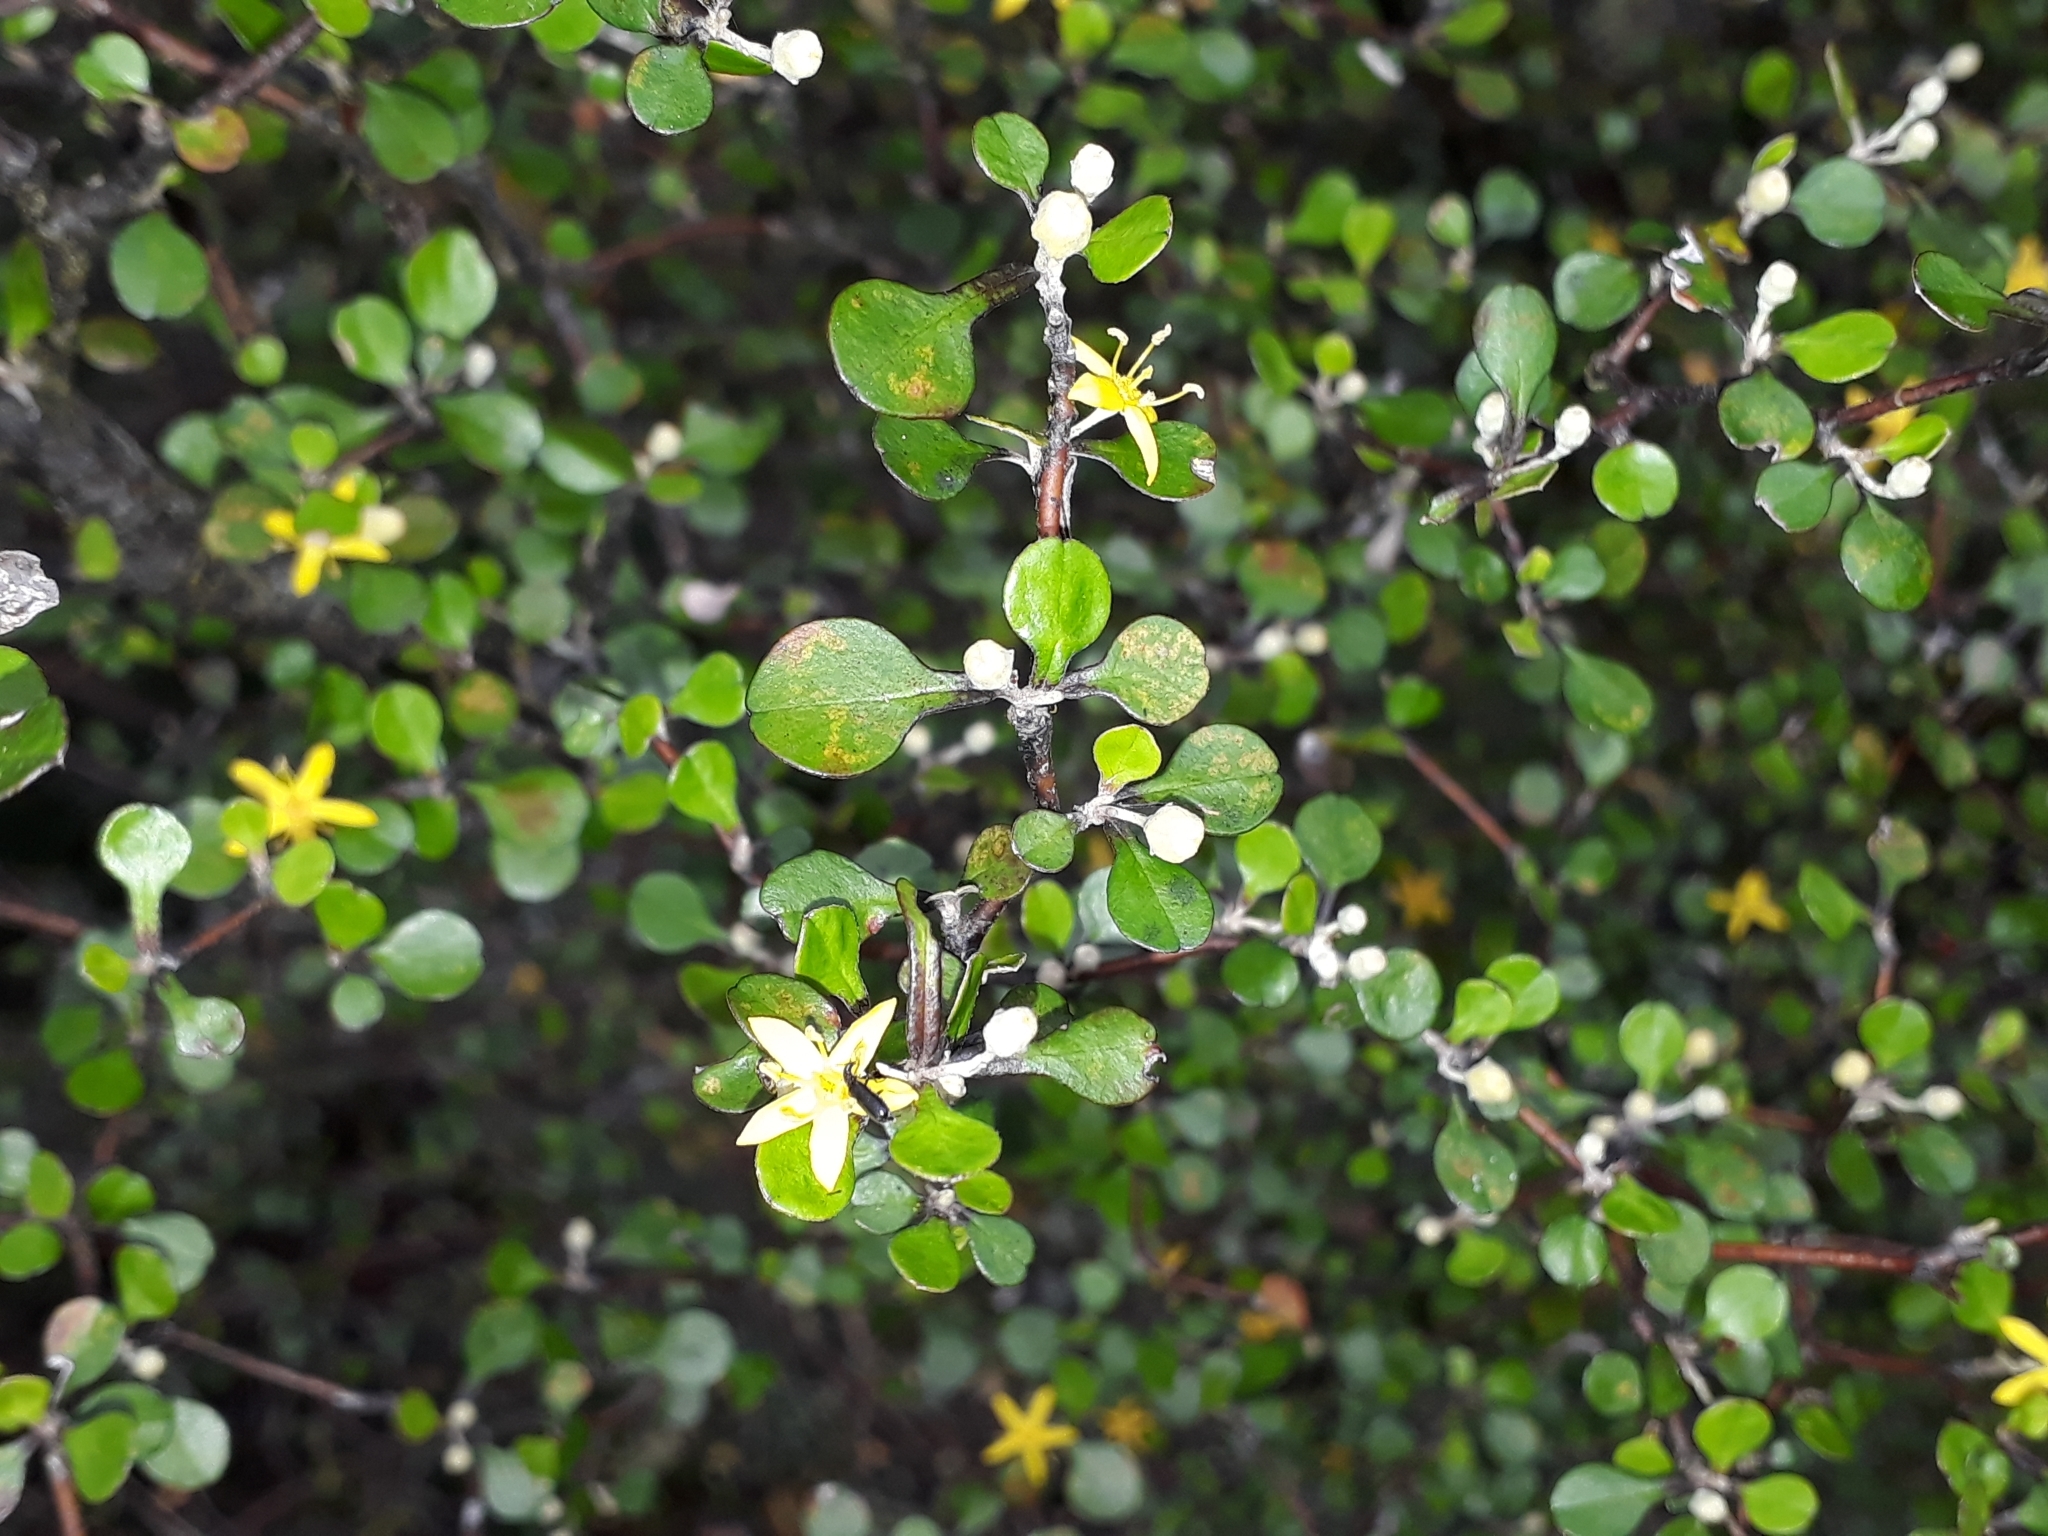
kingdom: Plantae
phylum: Tracheophyta
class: Magnoliopsida
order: Asterales
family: Argophyllaceae
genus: Corokia
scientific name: Corokia cotoneaster
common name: Wire nettingbush
